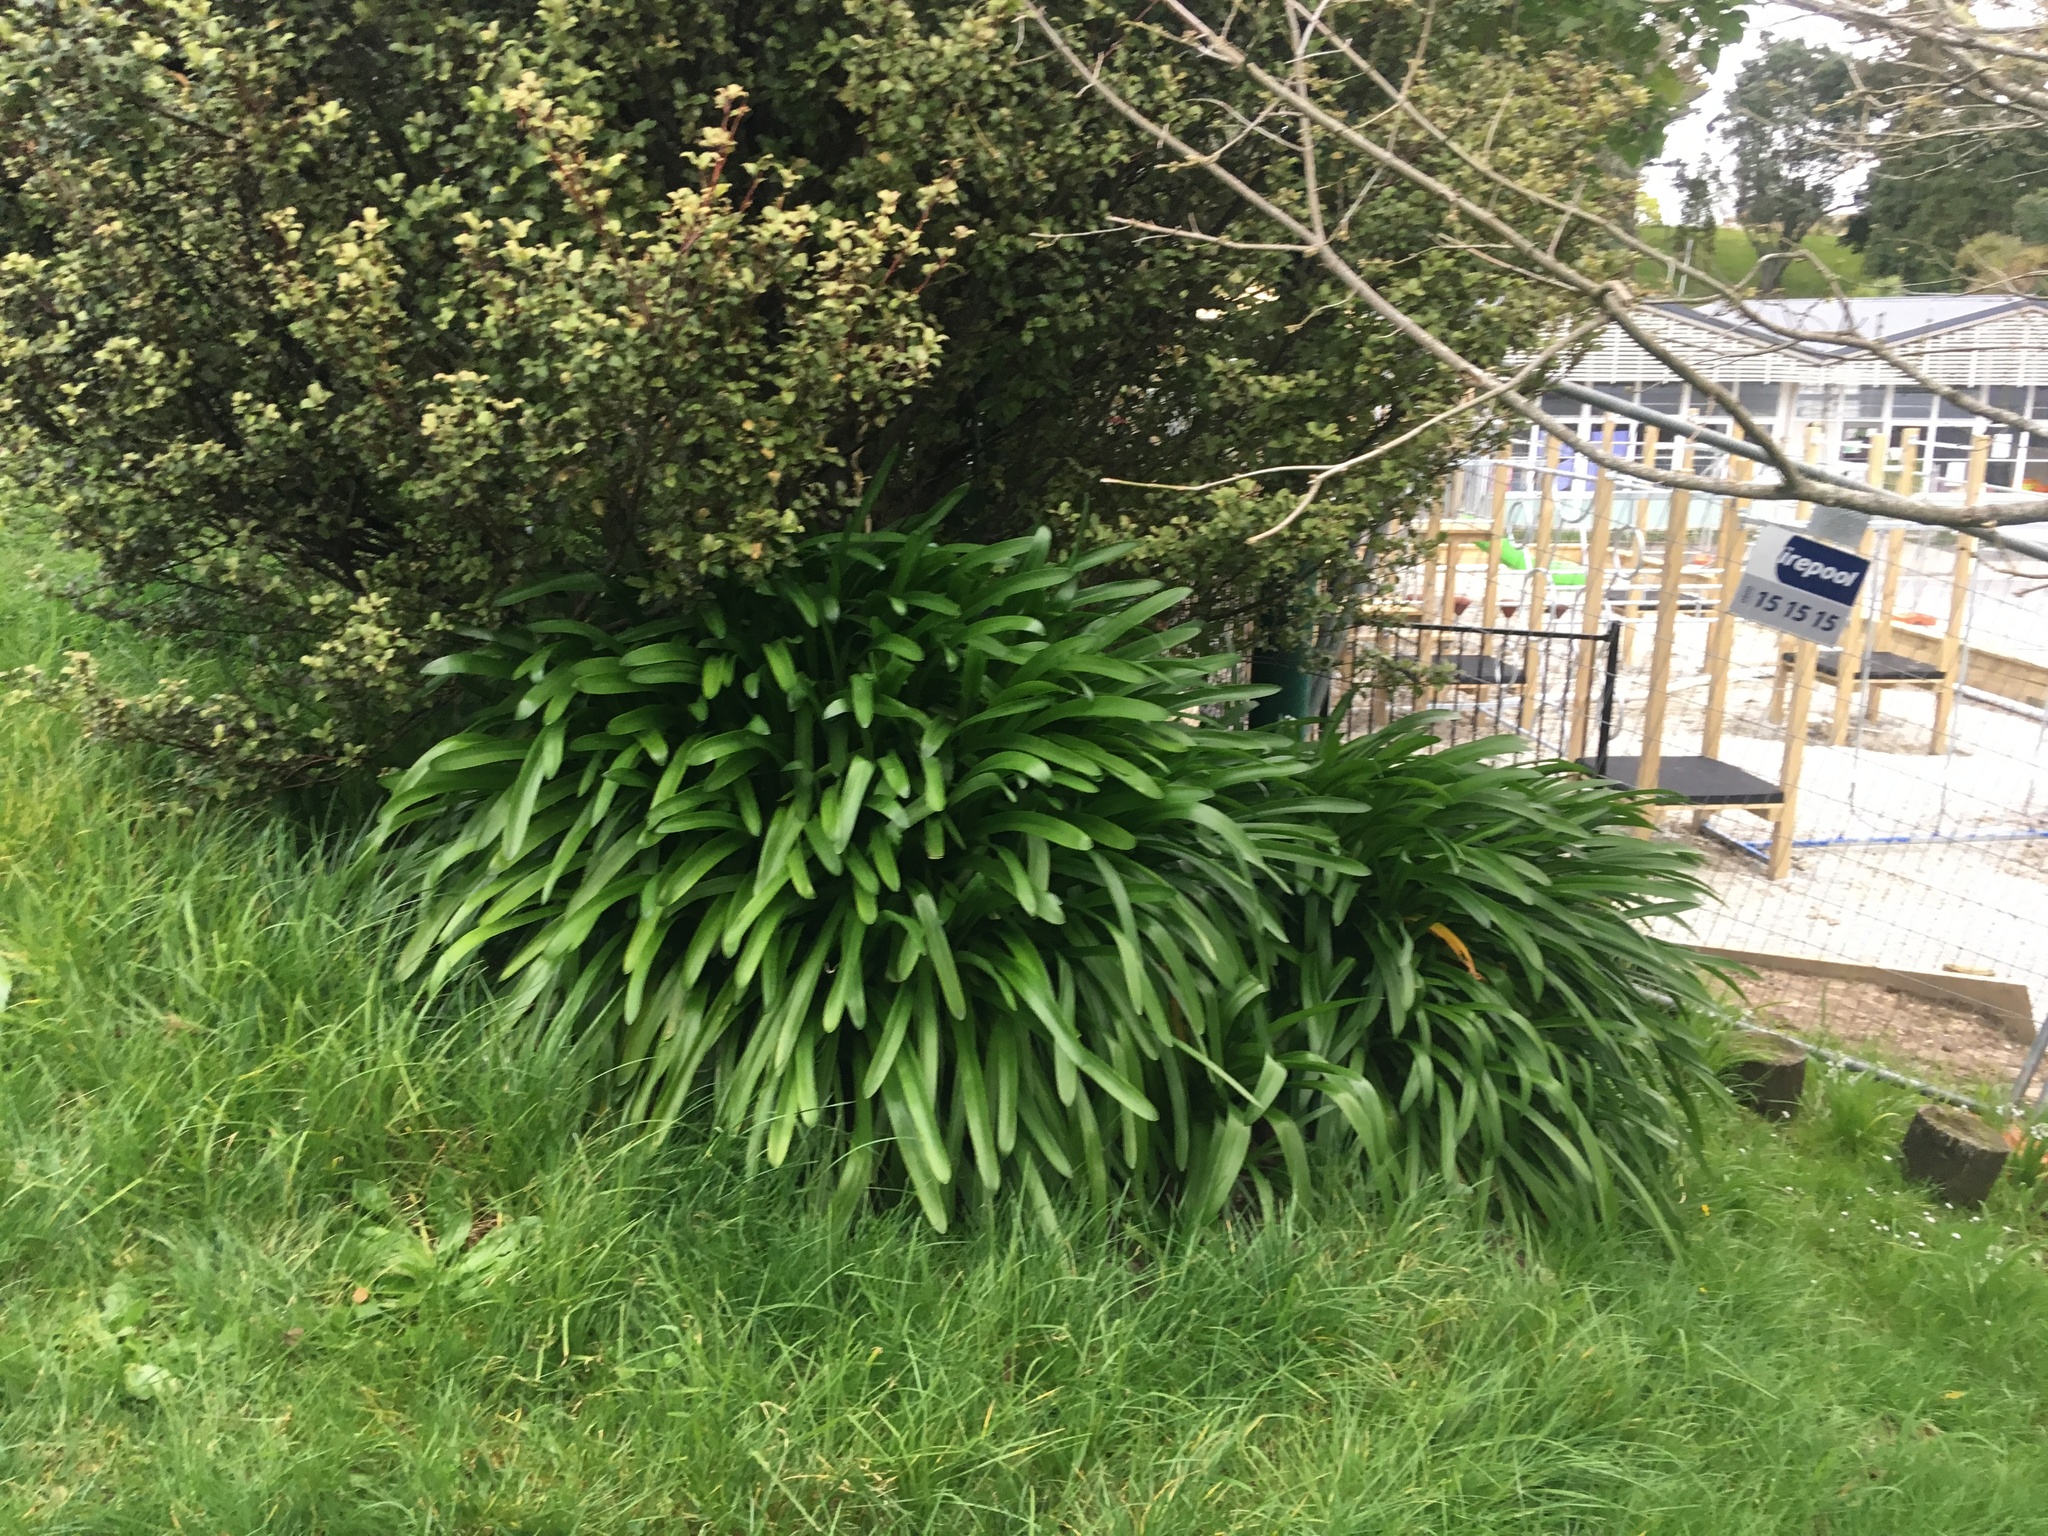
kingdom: Plantae
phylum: Tracheophyta
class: Liliopsida
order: Asparagales
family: Amaryllidaceae
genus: Agapanthus
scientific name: Agapanthus praecox
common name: African-lily
